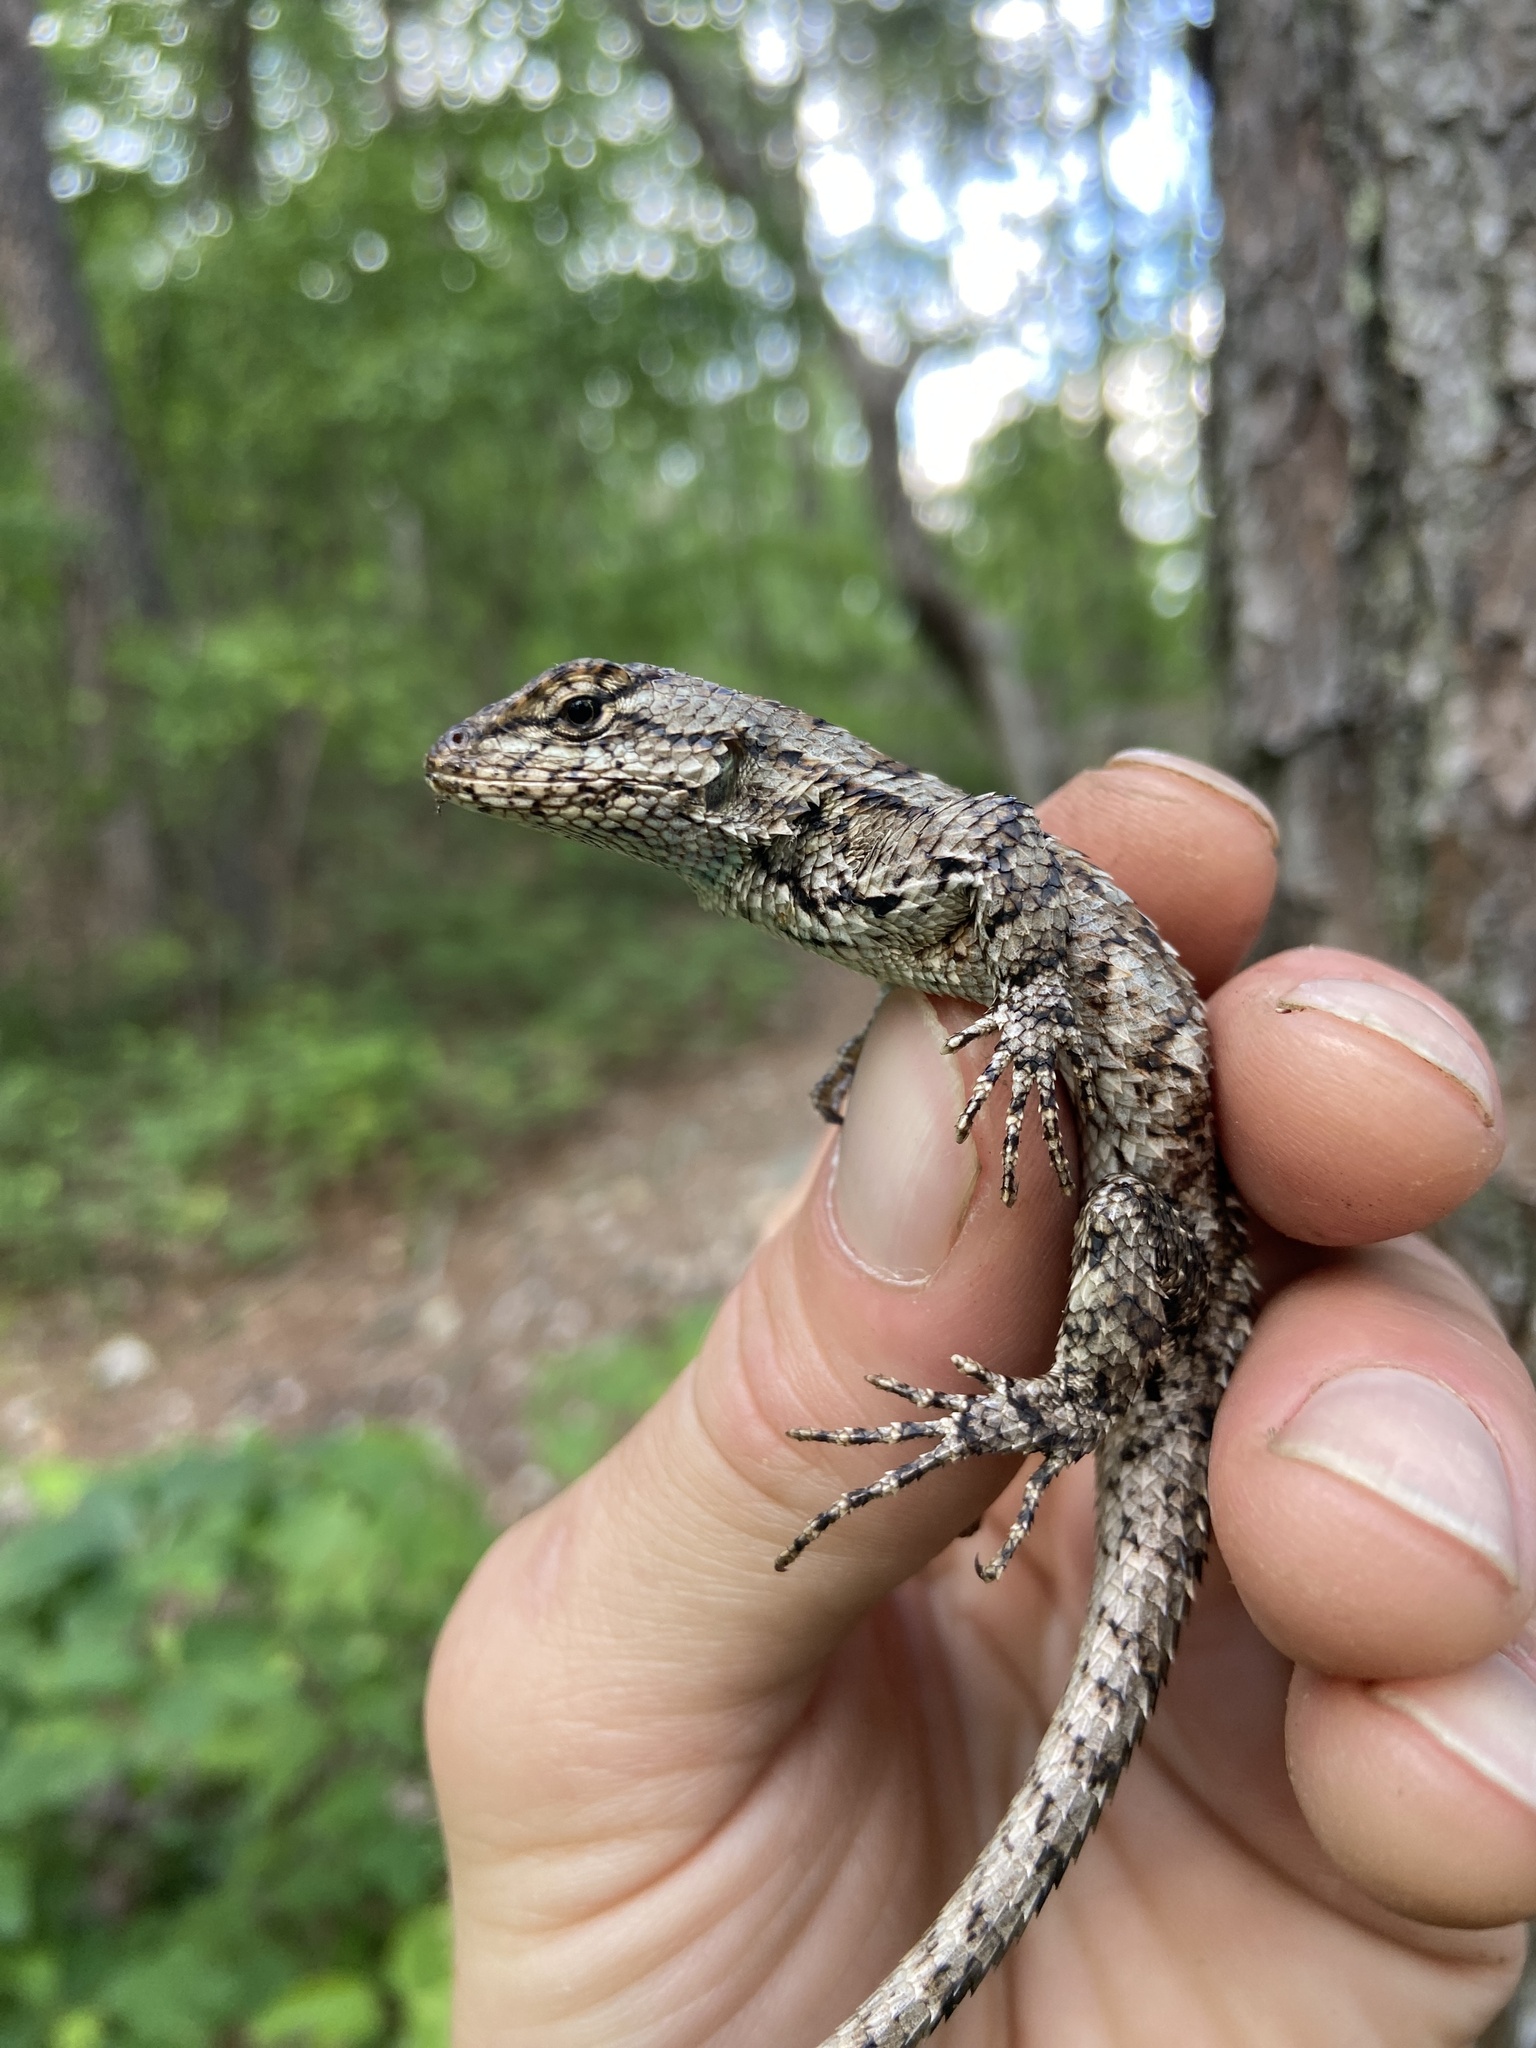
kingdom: Animalia
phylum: Chordata
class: Squamata
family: Phrynosomatidae
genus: Sceloporus
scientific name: Sceloporus undulatus
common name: Eastern fence lizard
